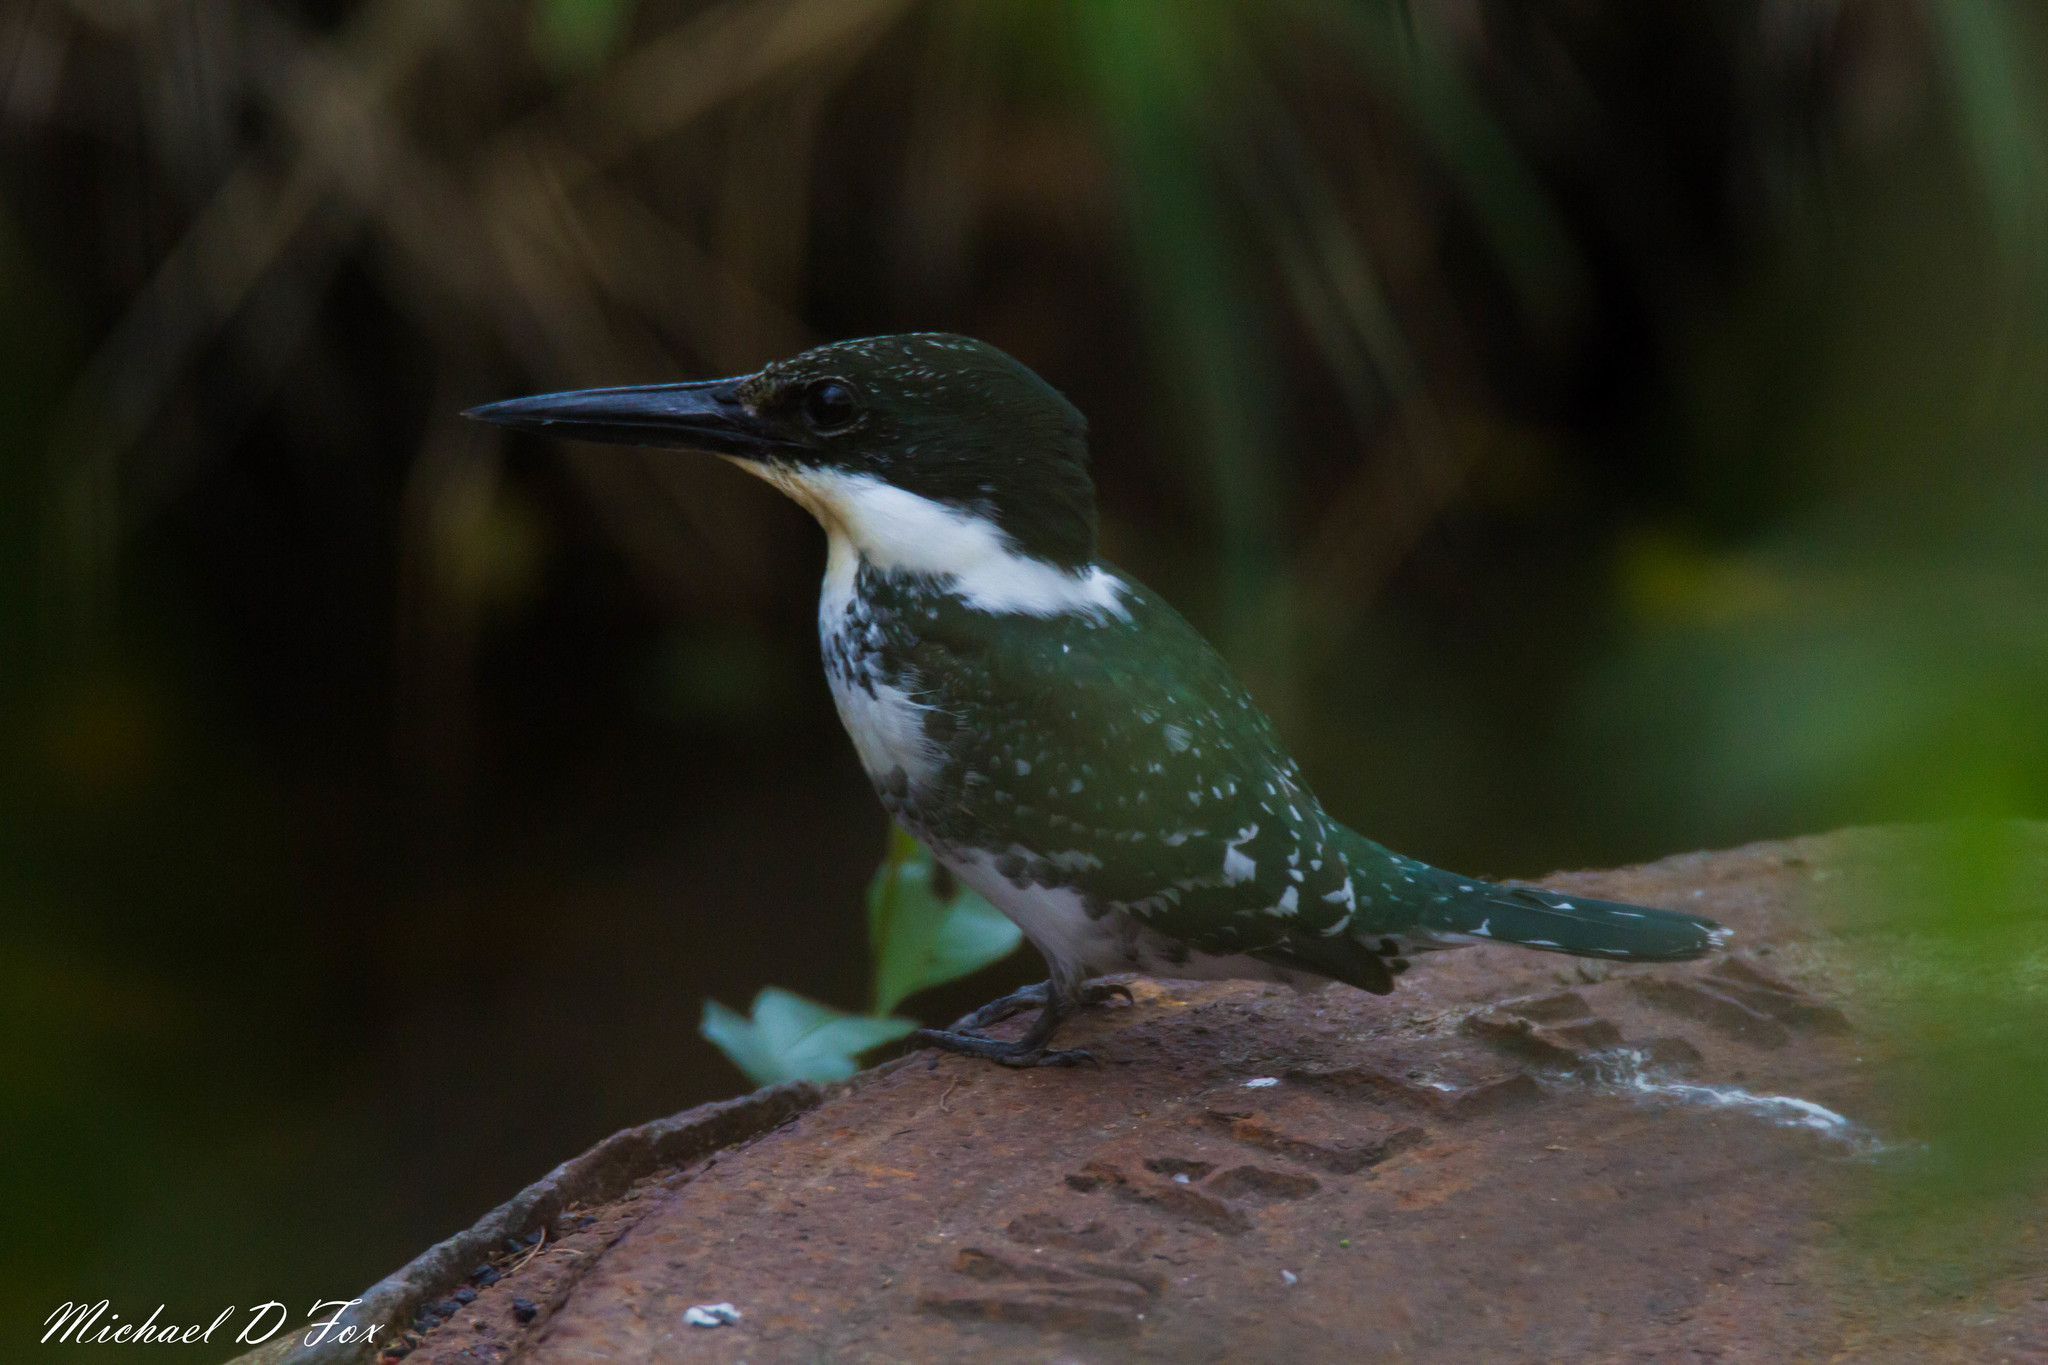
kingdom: Animalia
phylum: Chordata
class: Aves
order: Coraciiformes
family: Alcedinidae
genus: Chloroceryle
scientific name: Chloroceryle americana
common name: Green kingfisher
